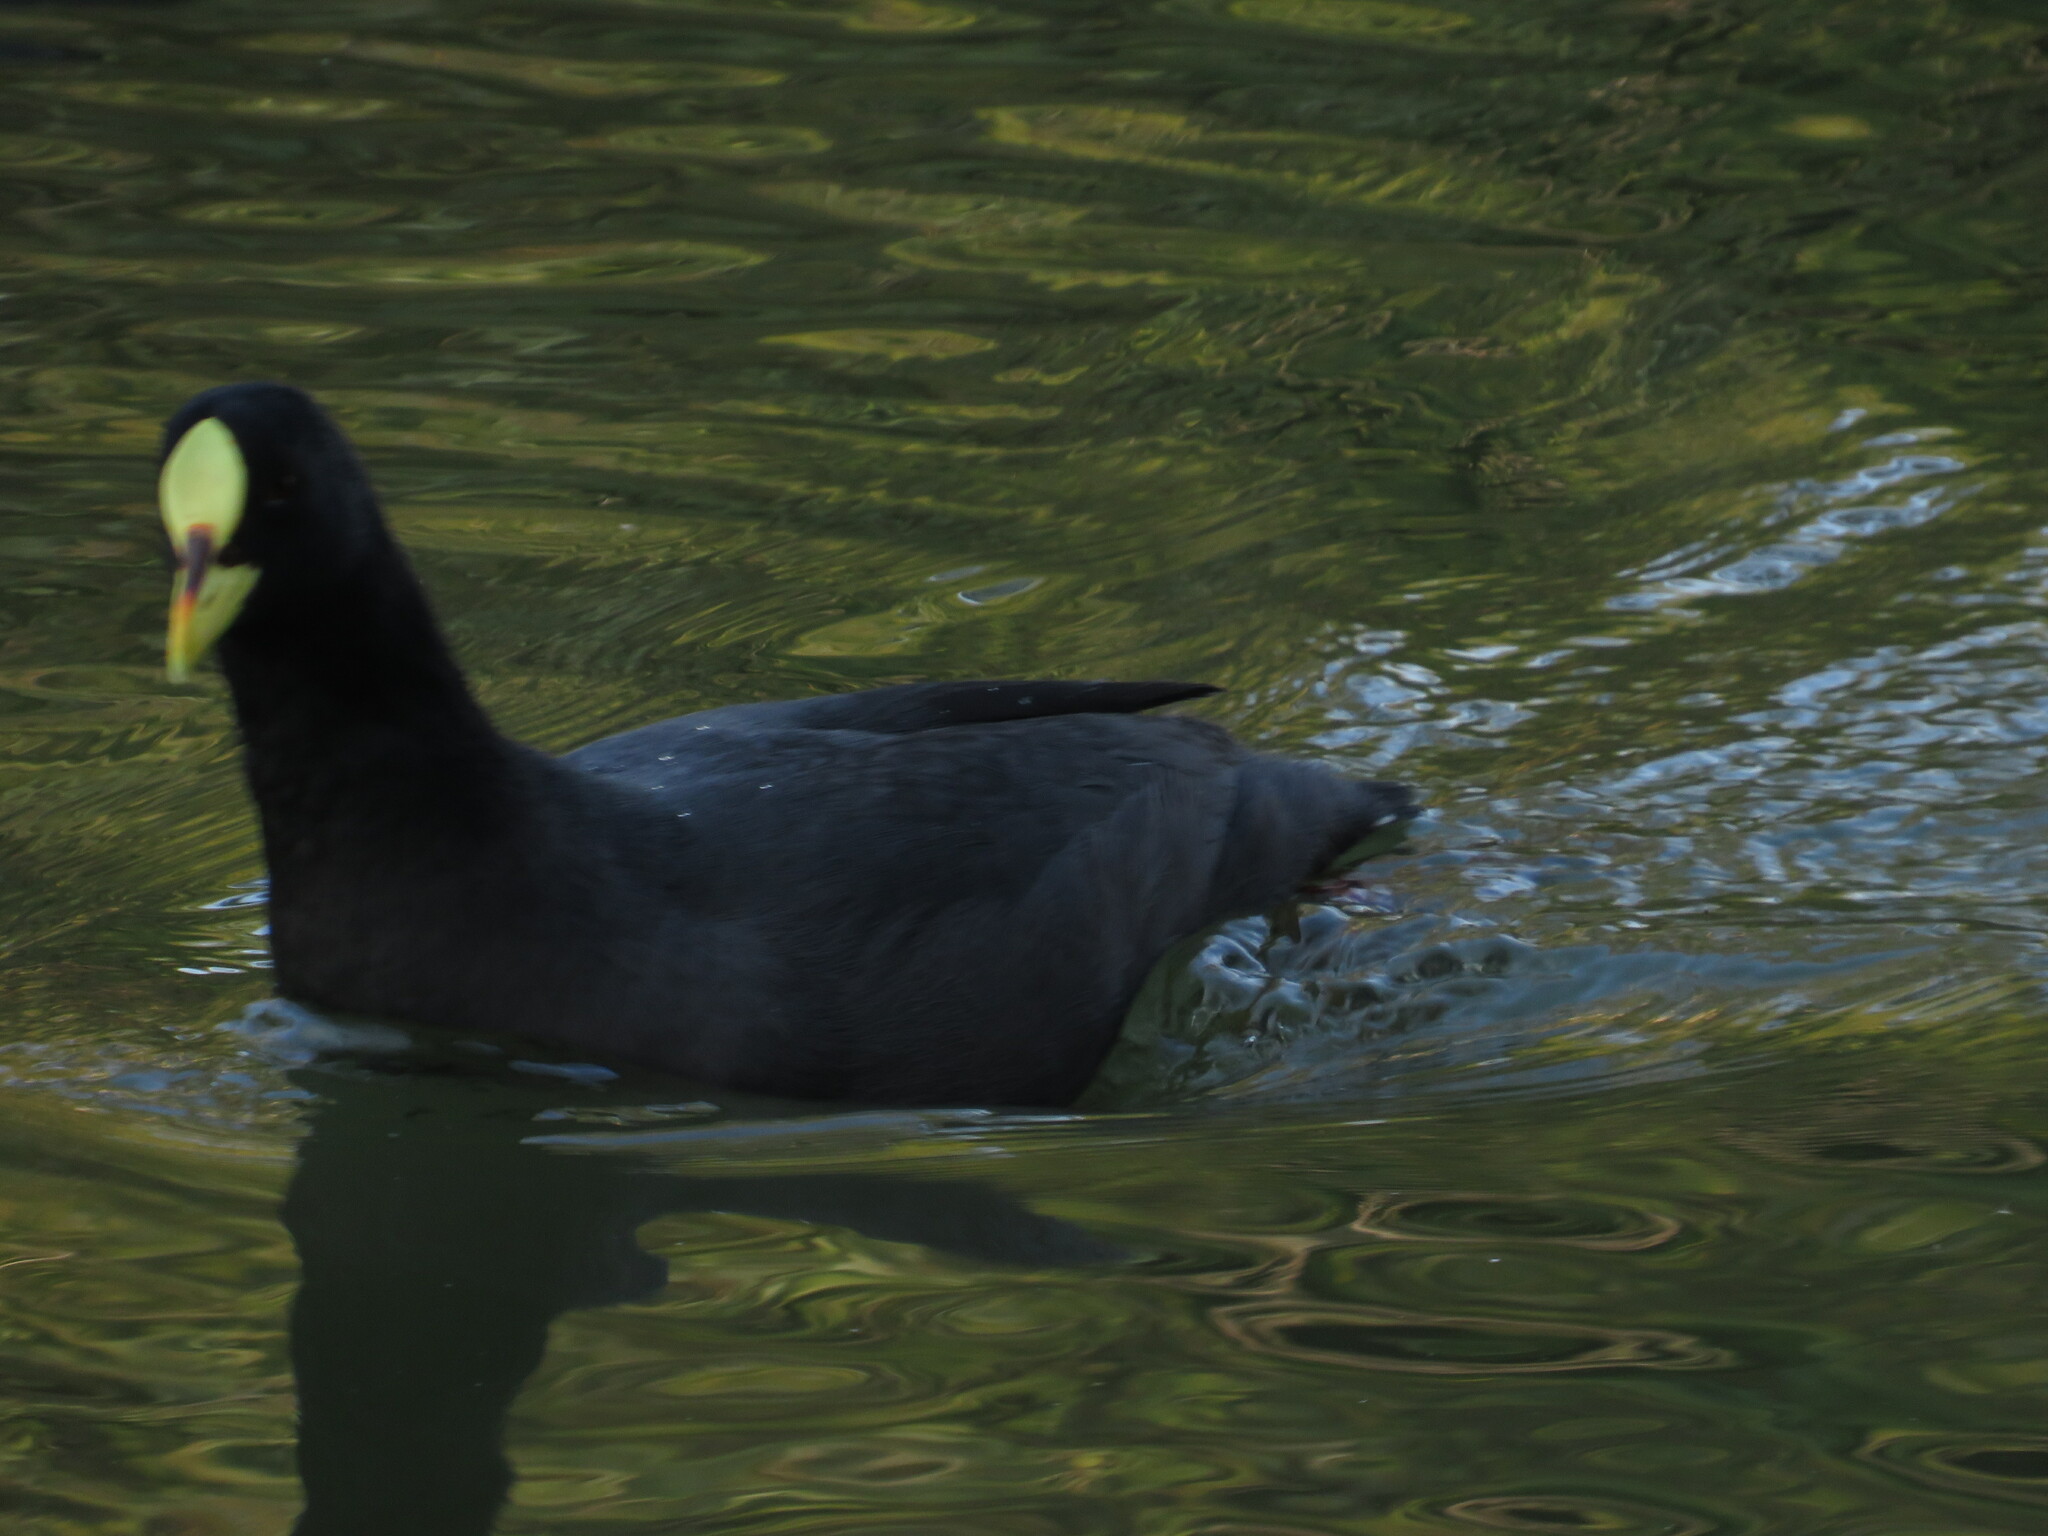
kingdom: Animalia
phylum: Chordata
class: Aves
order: Gruiformes
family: Rallidae
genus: Fulica
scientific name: Fulica armillata
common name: Red-gartered coot
